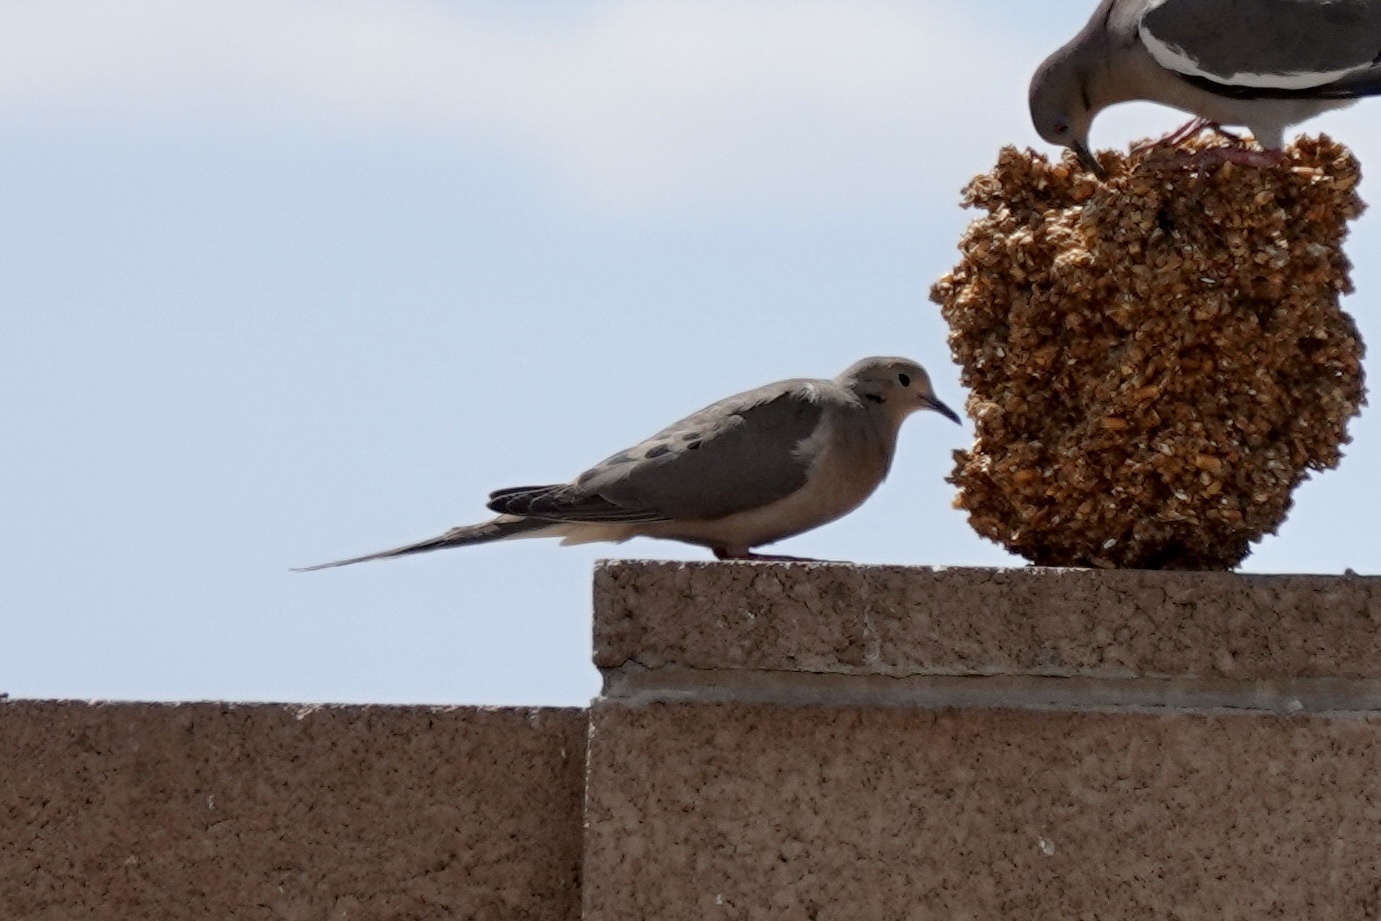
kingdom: Animalia
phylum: Chordata
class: Aves
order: Columbiformes
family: Columbidae
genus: Zenaida
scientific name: Zenaida macroura
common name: Mourning dove
